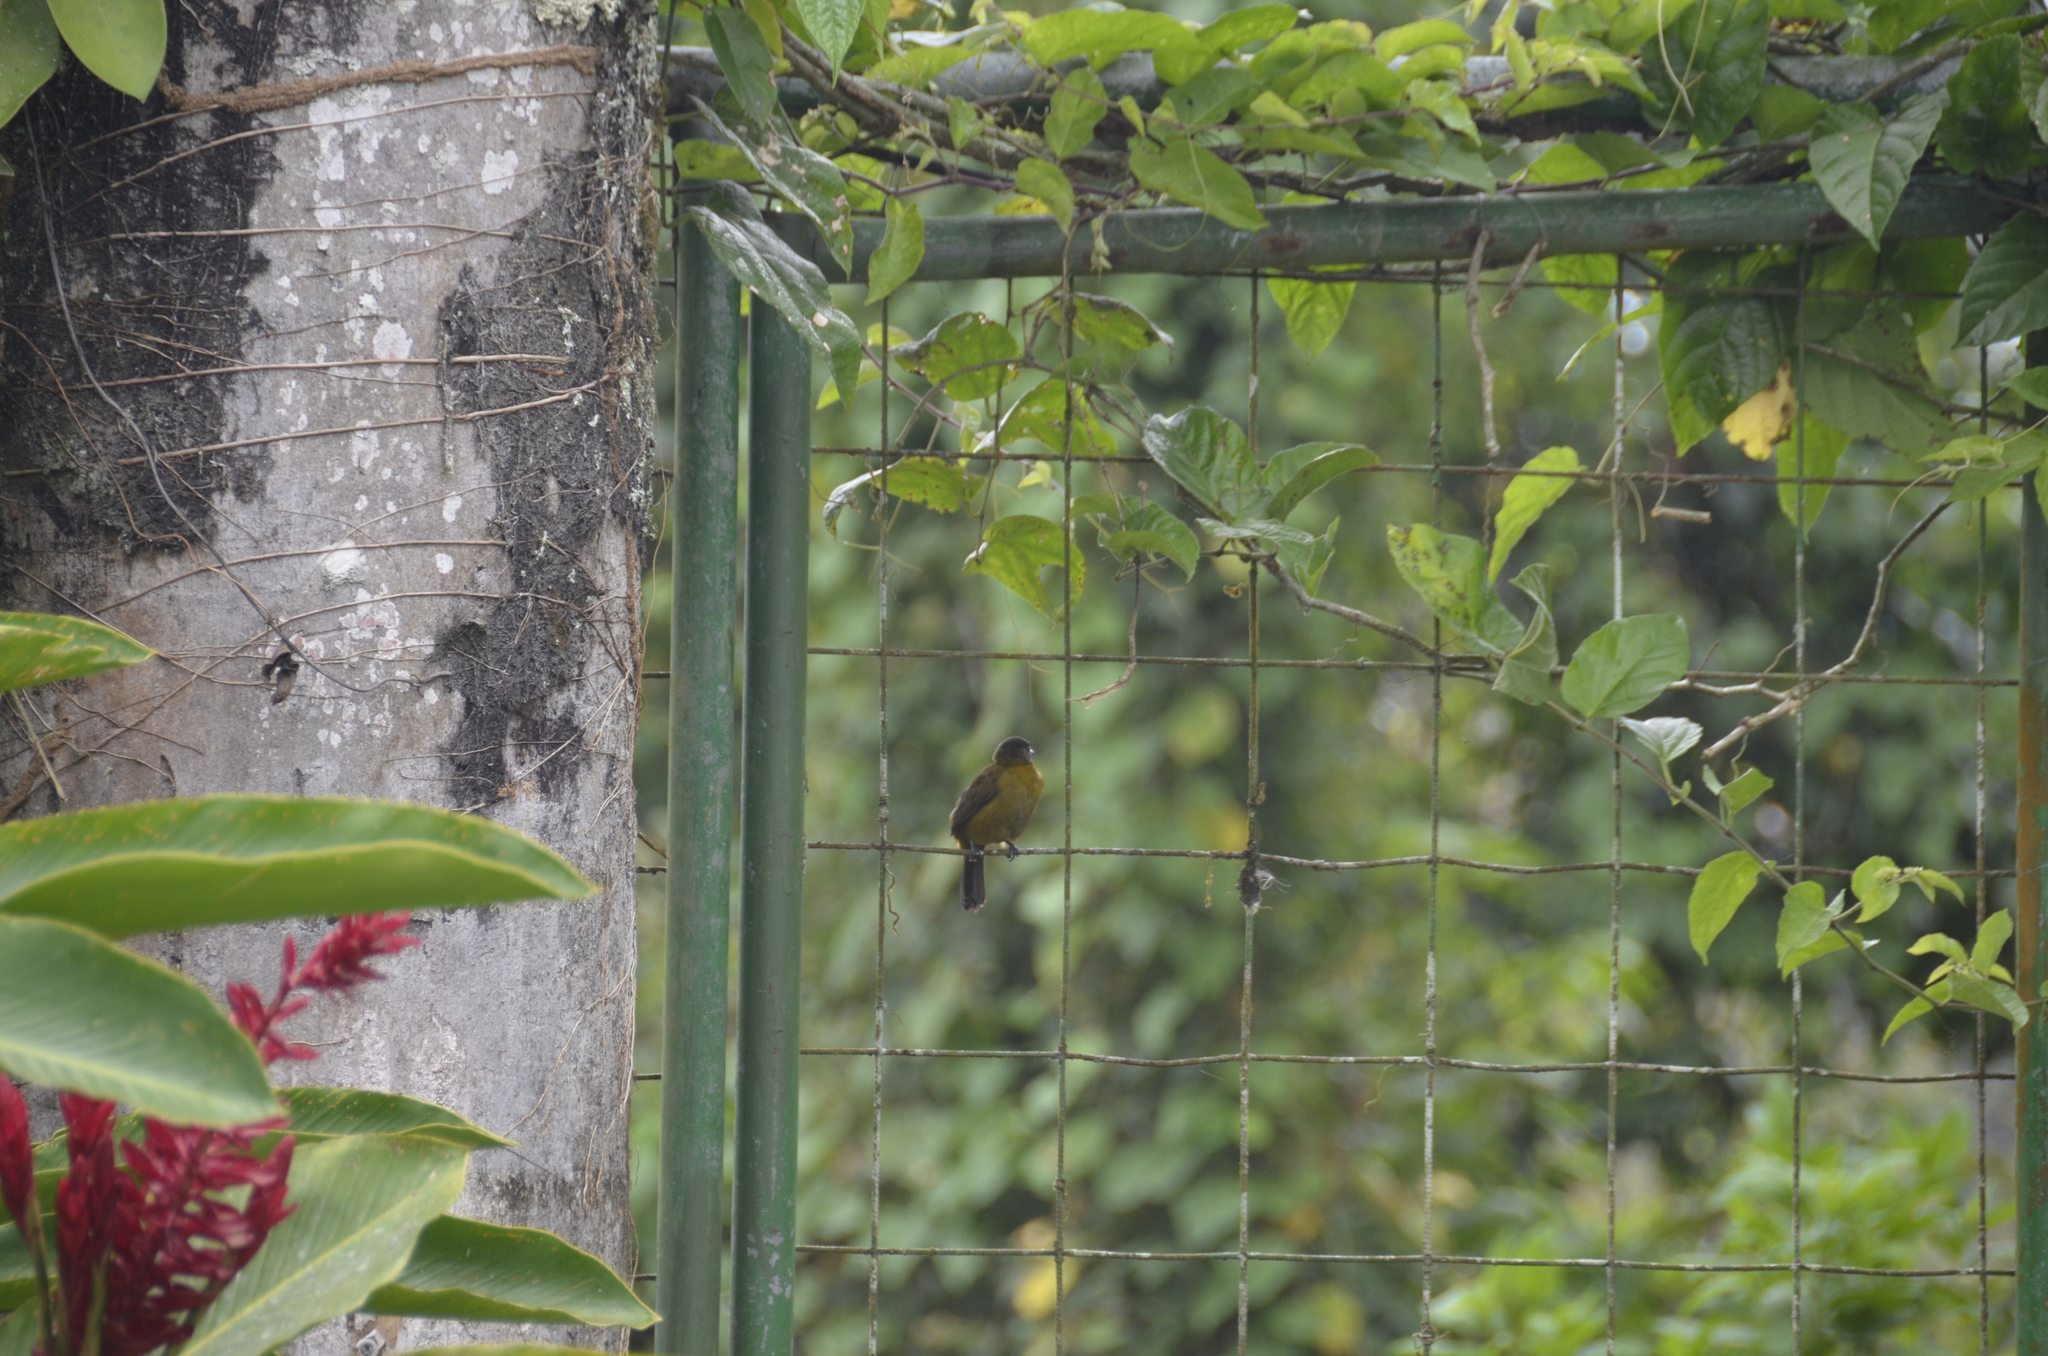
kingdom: Animalia
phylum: Chordata
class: Aves
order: Passeriformes
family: Thraupidae
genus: Ramphocelus
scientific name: Ramphocelus passerinii
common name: Passerini's tanager
